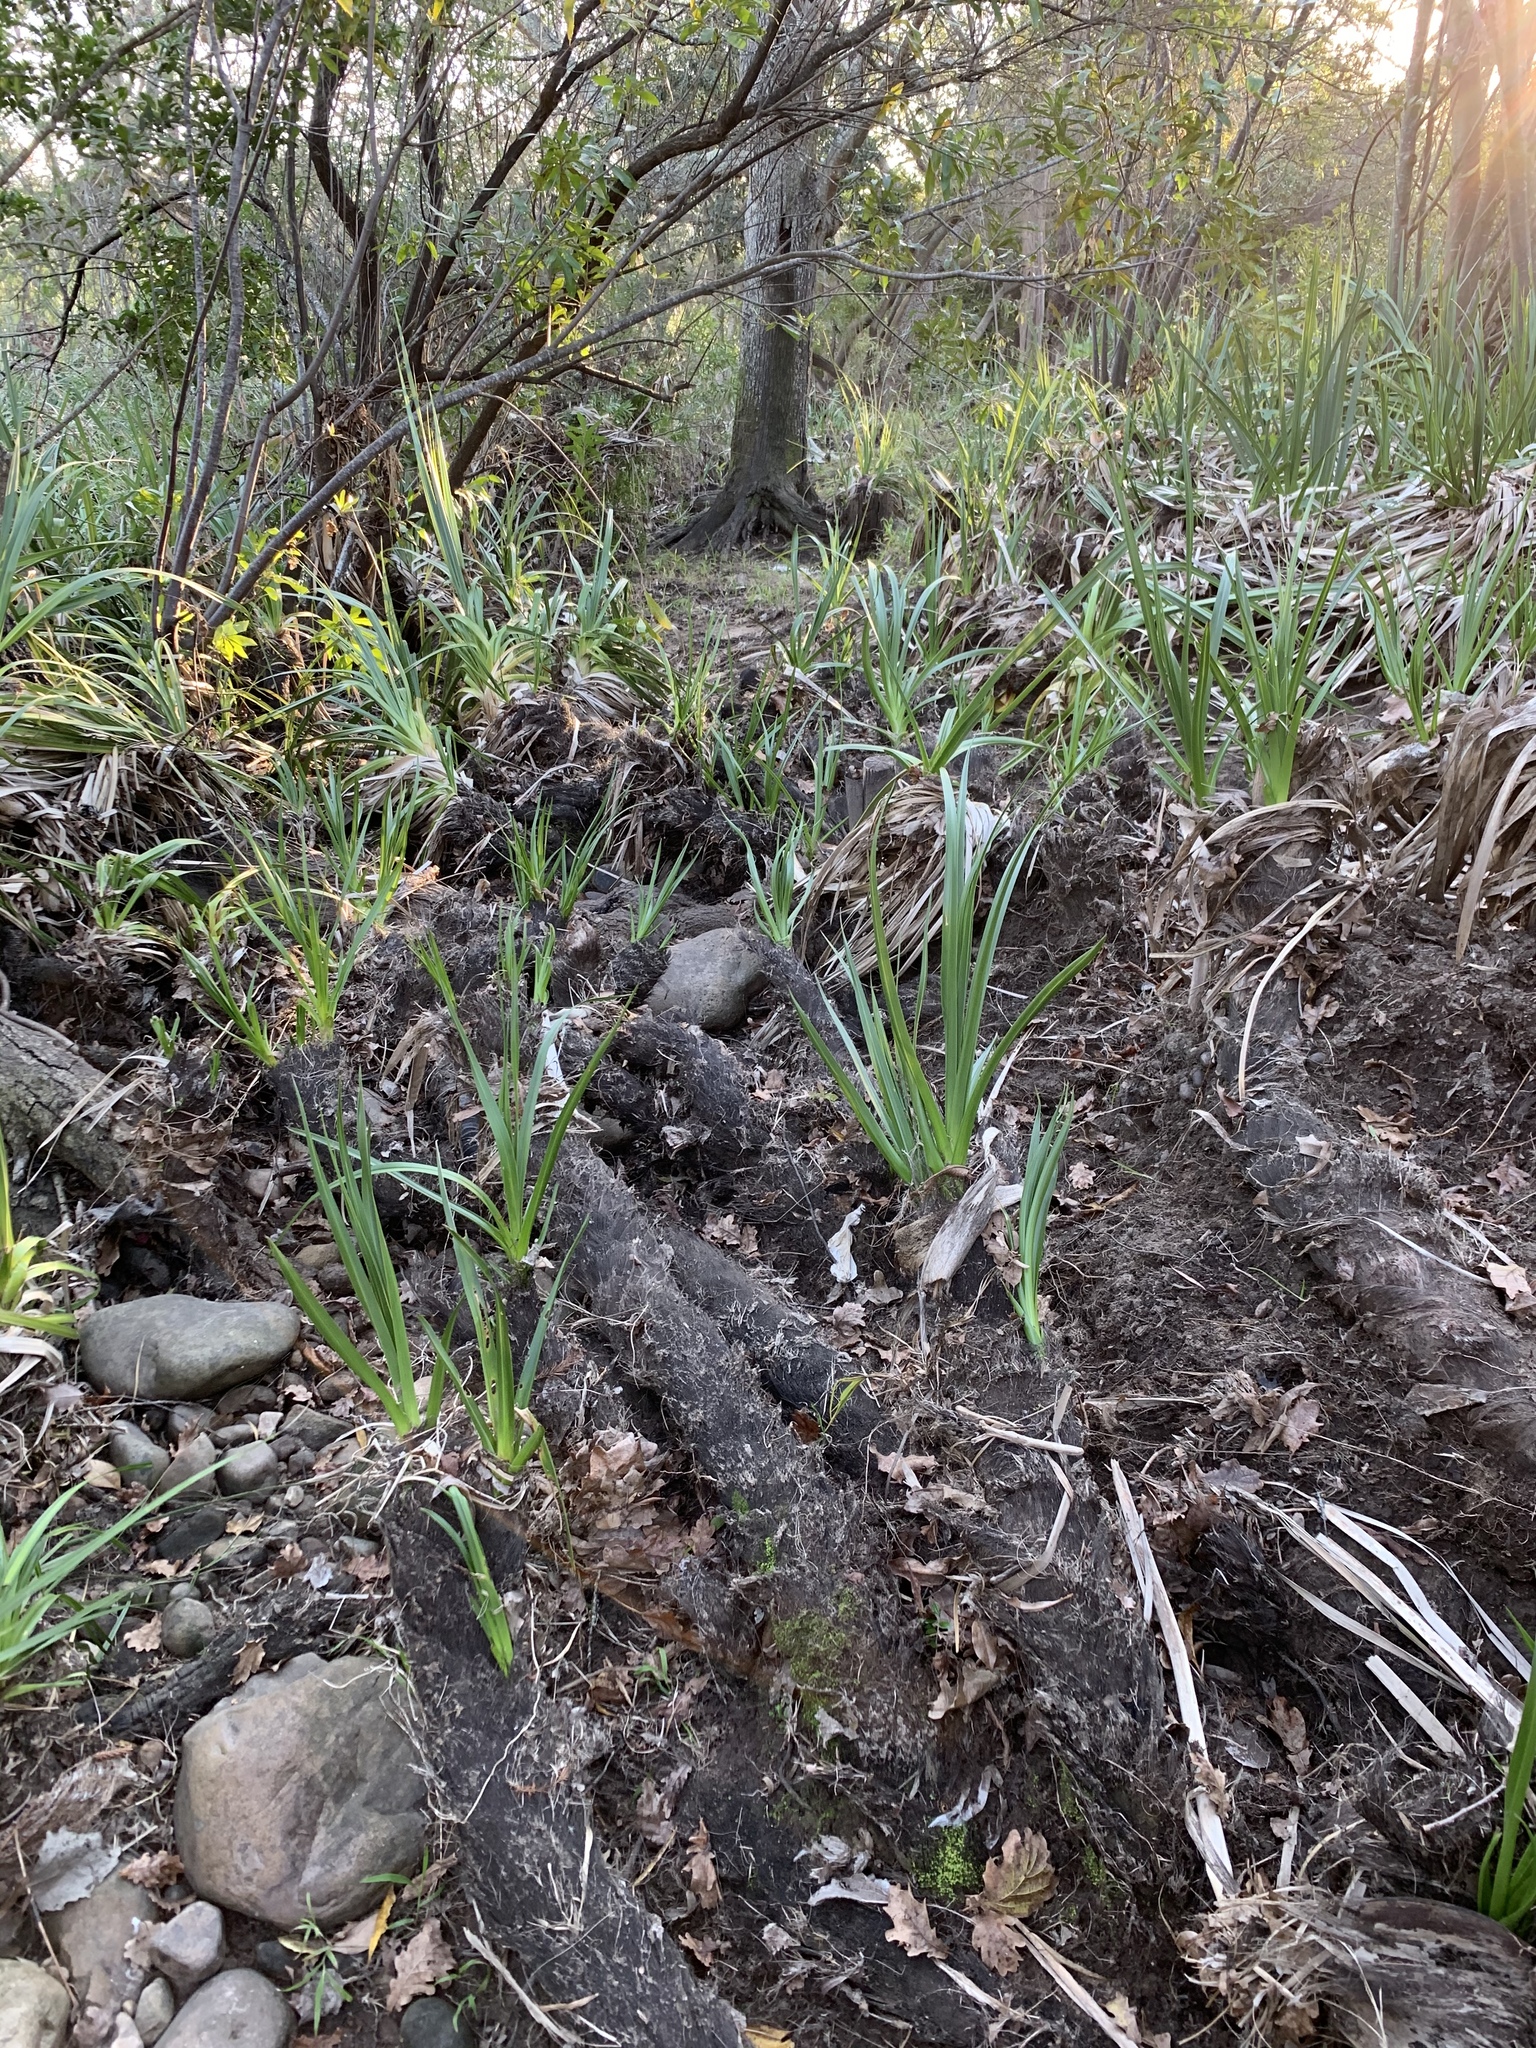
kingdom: Plantae
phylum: Tracheophyta
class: Liliopsida
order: Poales
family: Thurniaceae
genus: Prionium
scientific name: Prionium serratum
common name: Palmiet
